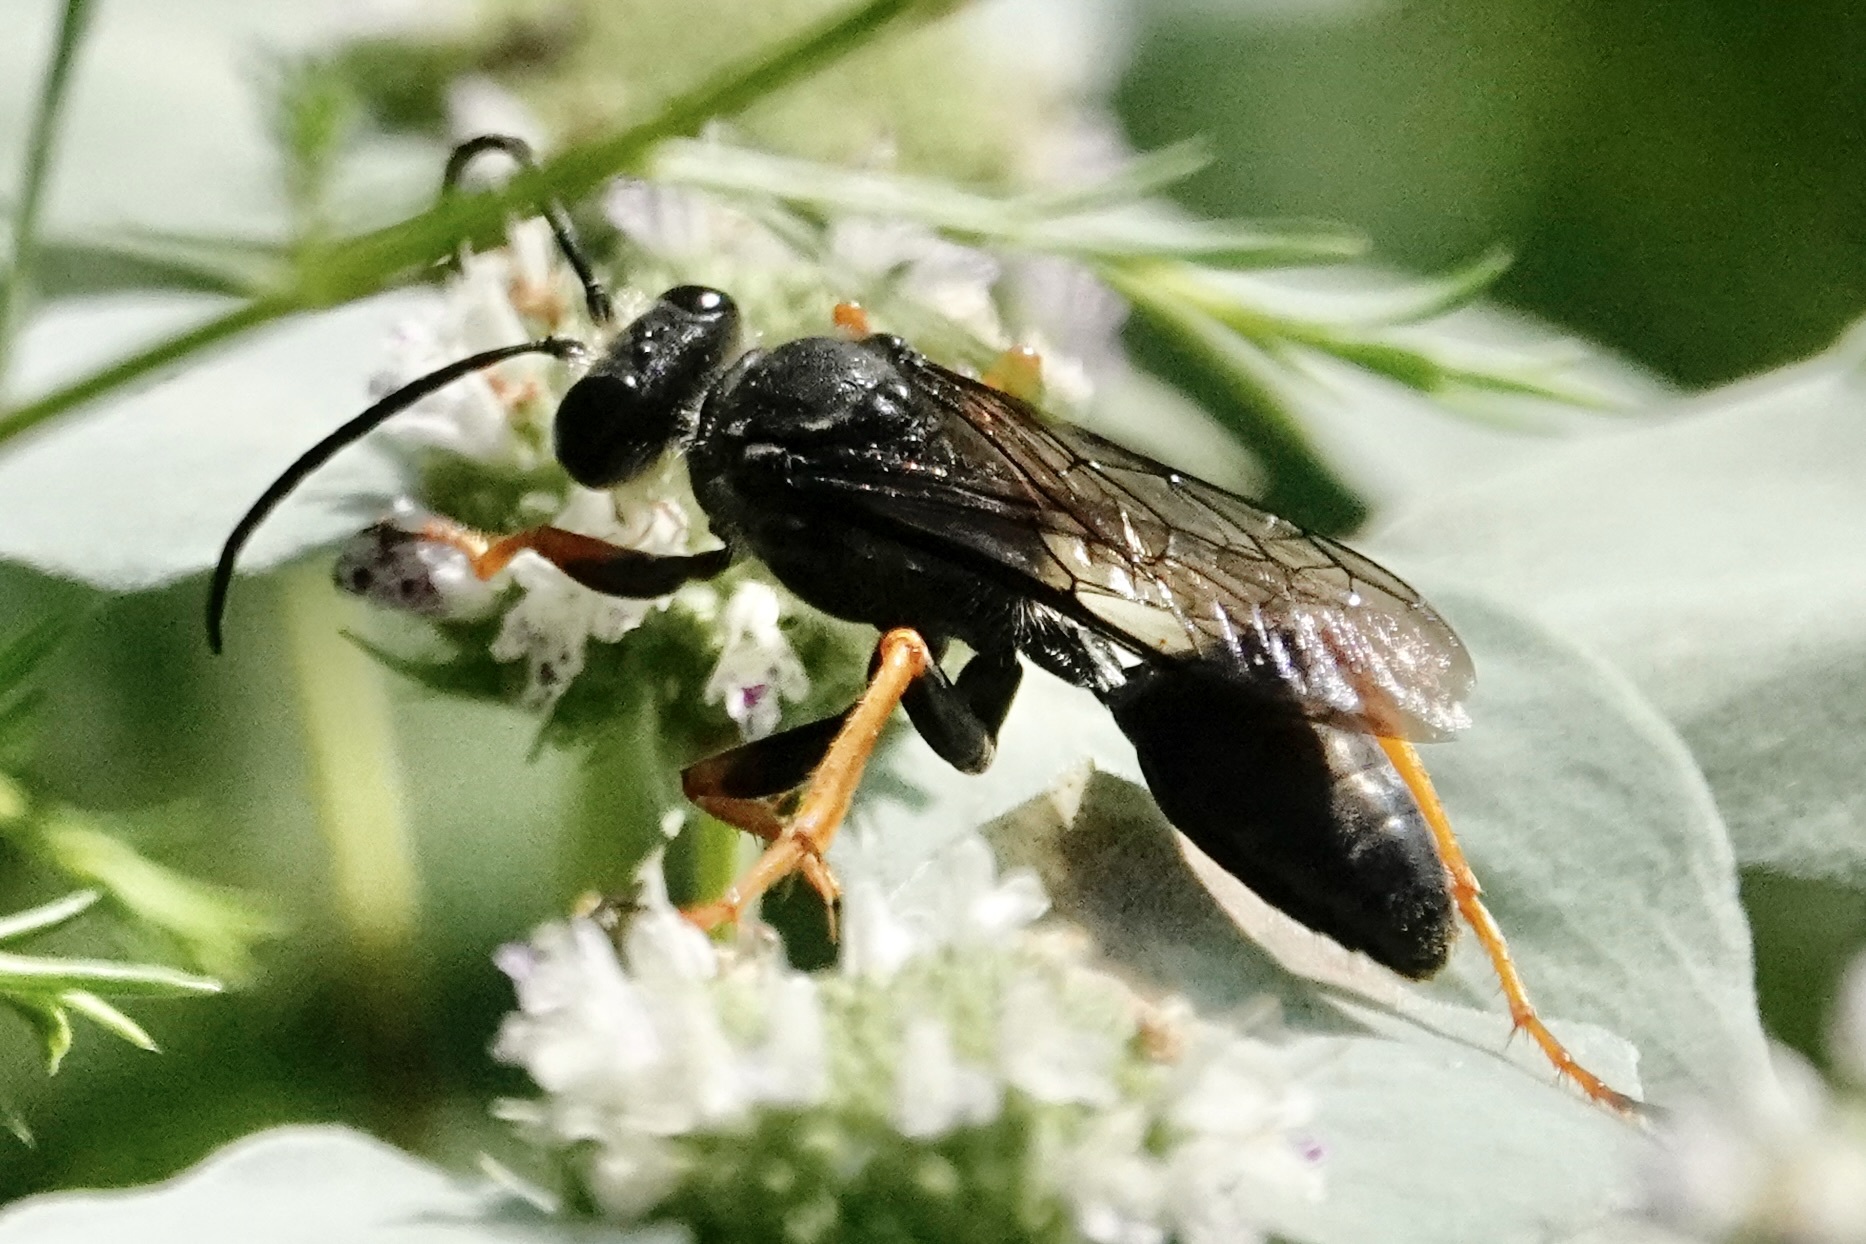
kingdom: Animalia
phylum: Arthropoda
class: Insecta
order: Hymenoptera
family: Sphecidae
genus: Sphex
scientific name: Sphex nudus
